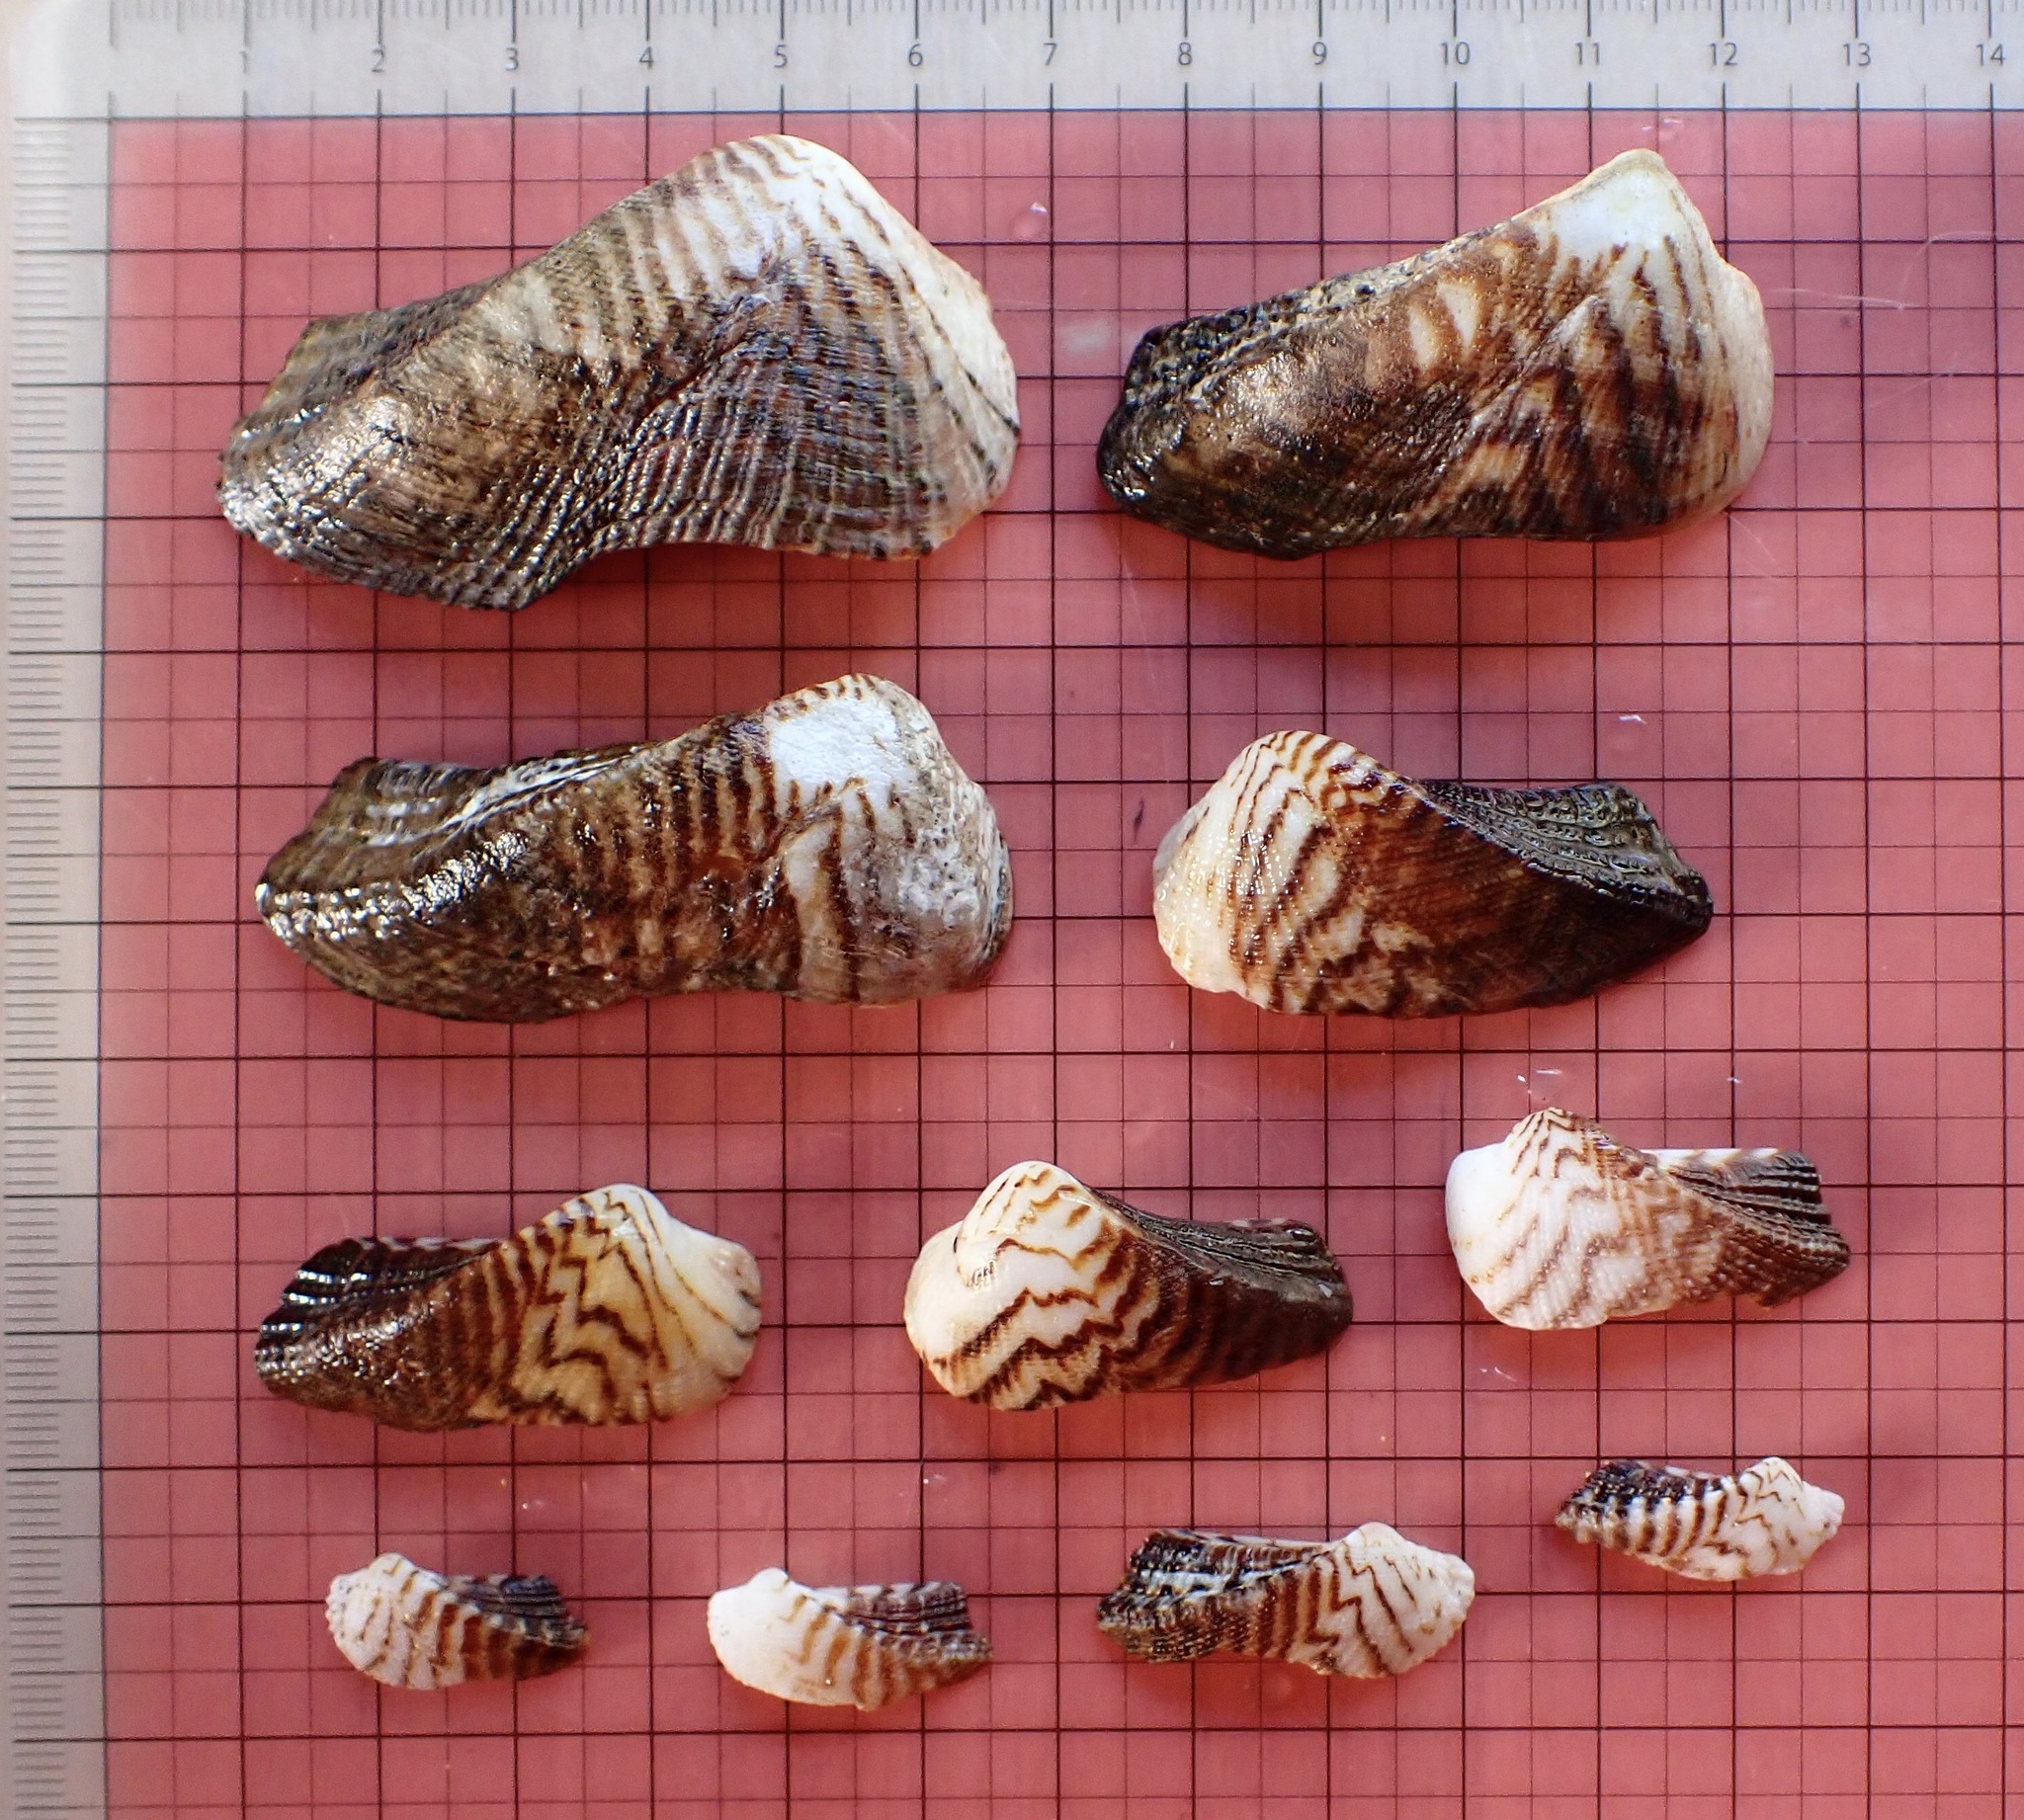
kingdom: Animalia
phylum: Mollusca
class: Bivalvia
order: Arcida
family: Arcidae
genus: Lamarcka
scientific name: Lamarcka ventricosa
